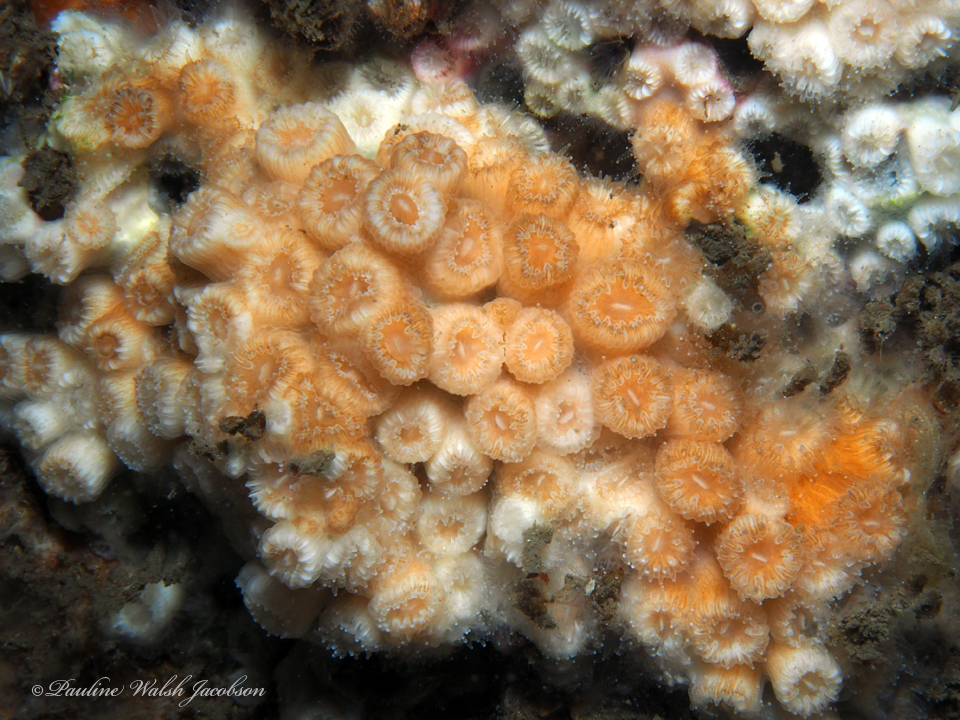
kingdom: Animalia
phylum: Cnidaria
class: Anthozoa
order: Scleractinia
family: Cladocoridae
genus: Cladocora
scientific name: Cladocora arbuscula
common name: Tube coral
